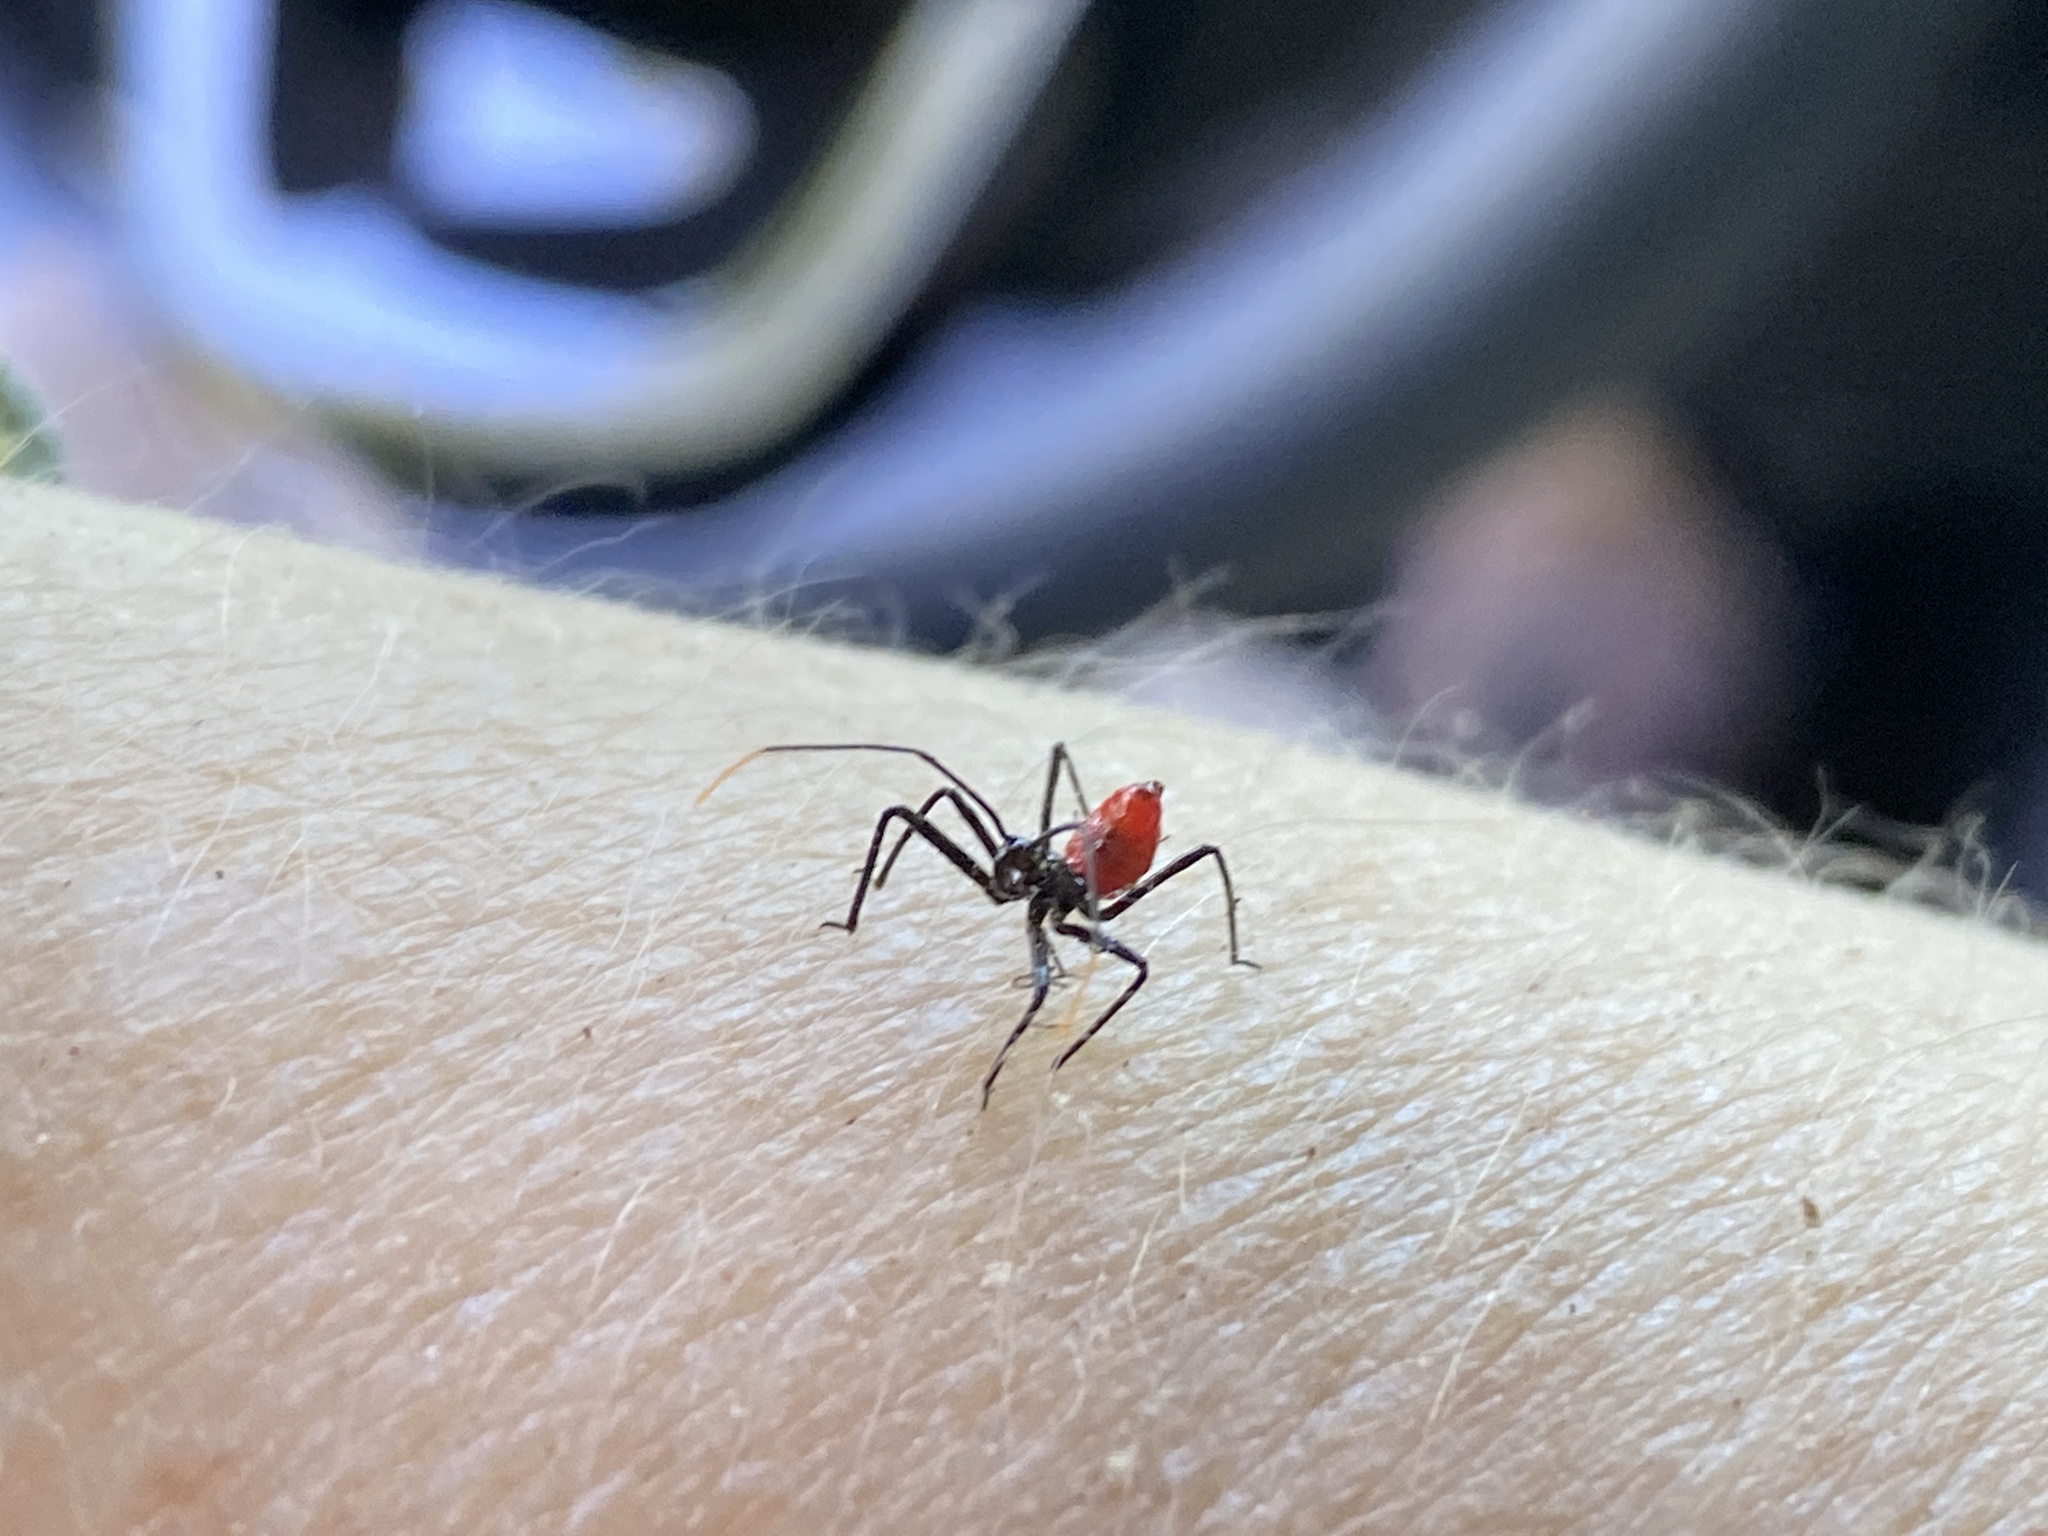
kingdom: Animalia
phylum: Arthropoda
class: Insecta
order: Hemiptera
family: Reduviidae
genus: Arilus
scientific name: Arilus cristatus
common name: North american wheel bug
